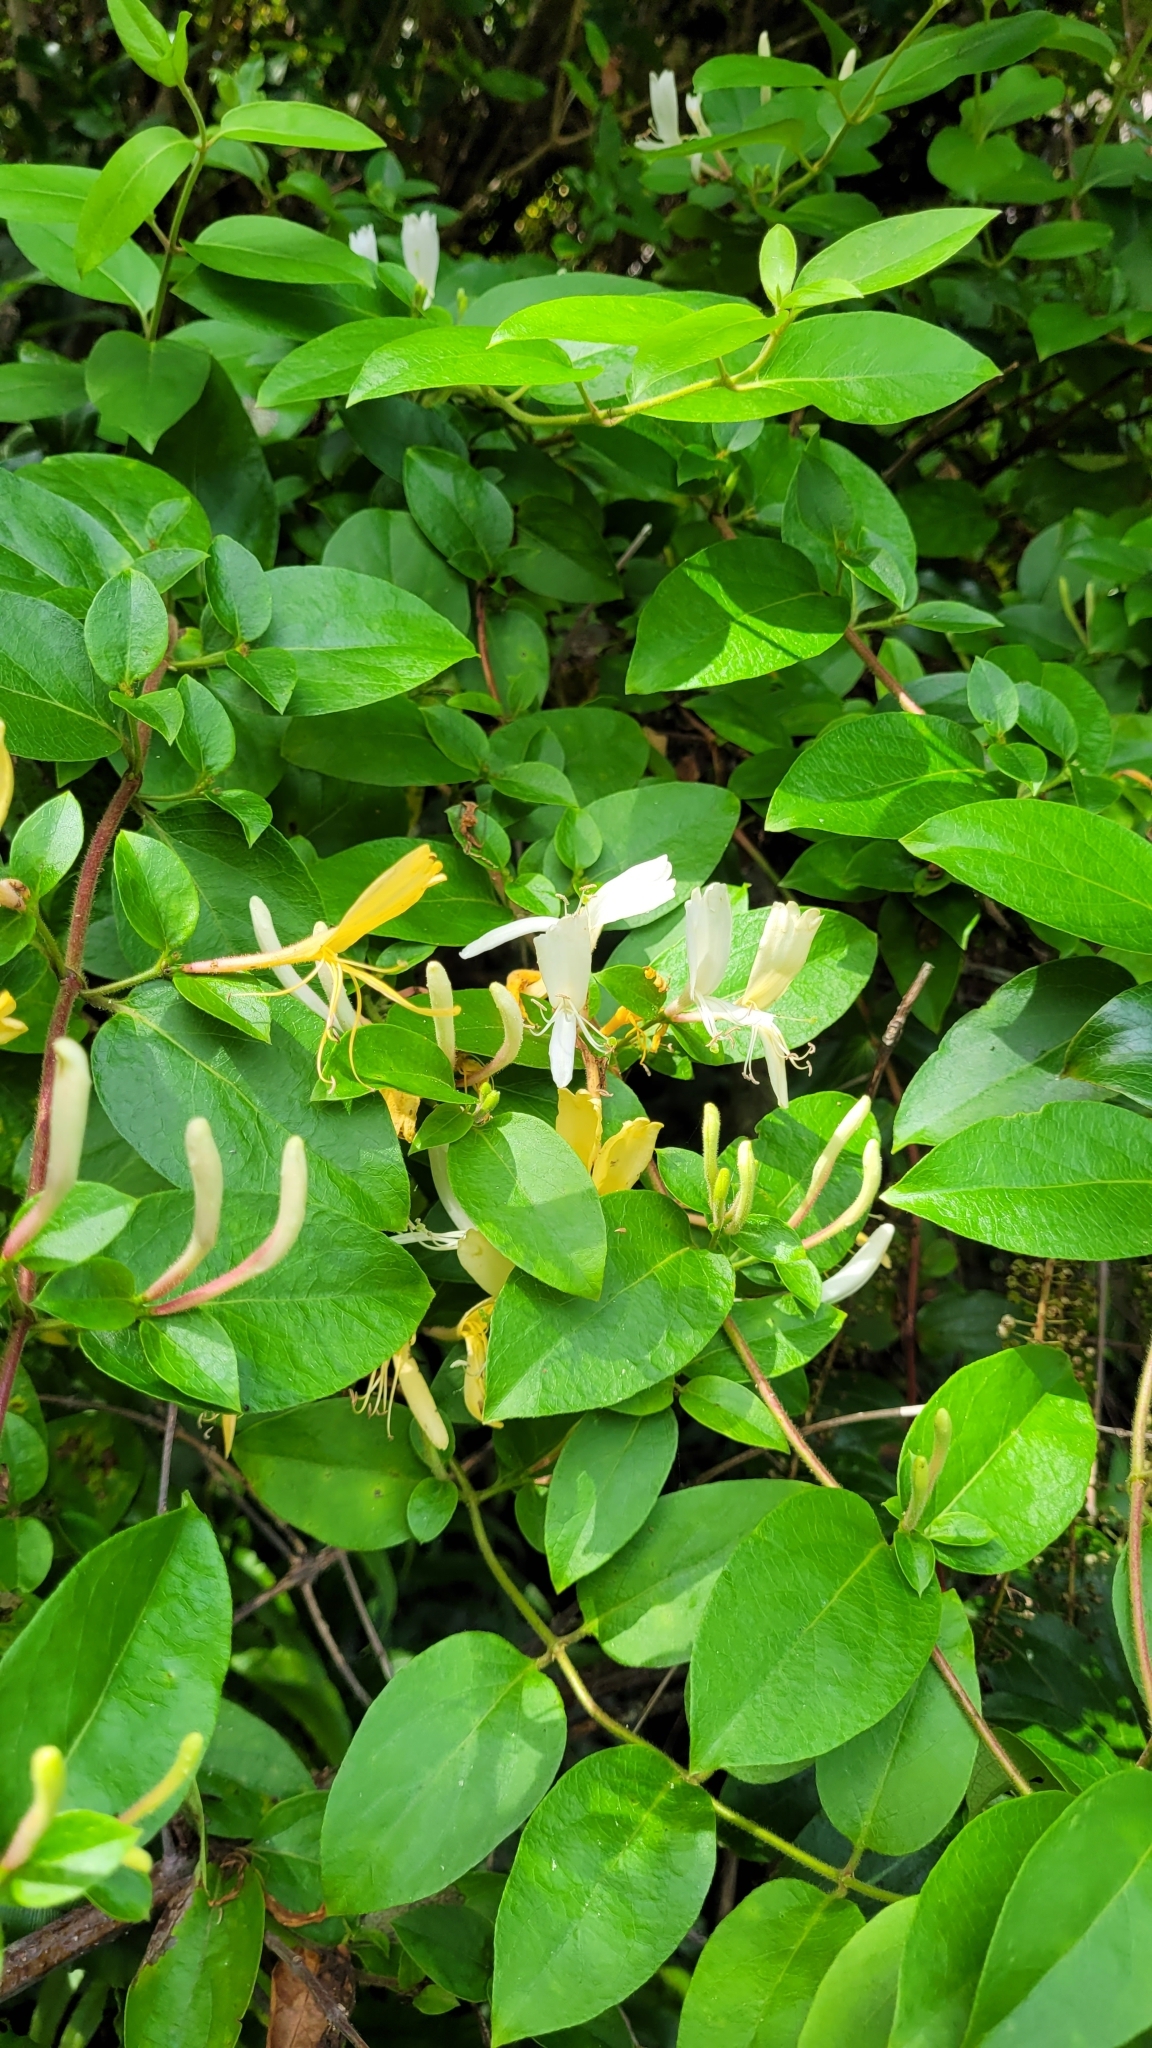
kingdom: Plantae
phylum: Tracheophyta
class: Magnoliopsida
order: Dipsacales
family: Caprifoliaceae
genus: Lonicera
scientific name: Lonicera japonica
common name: Japanese honeysuckle
